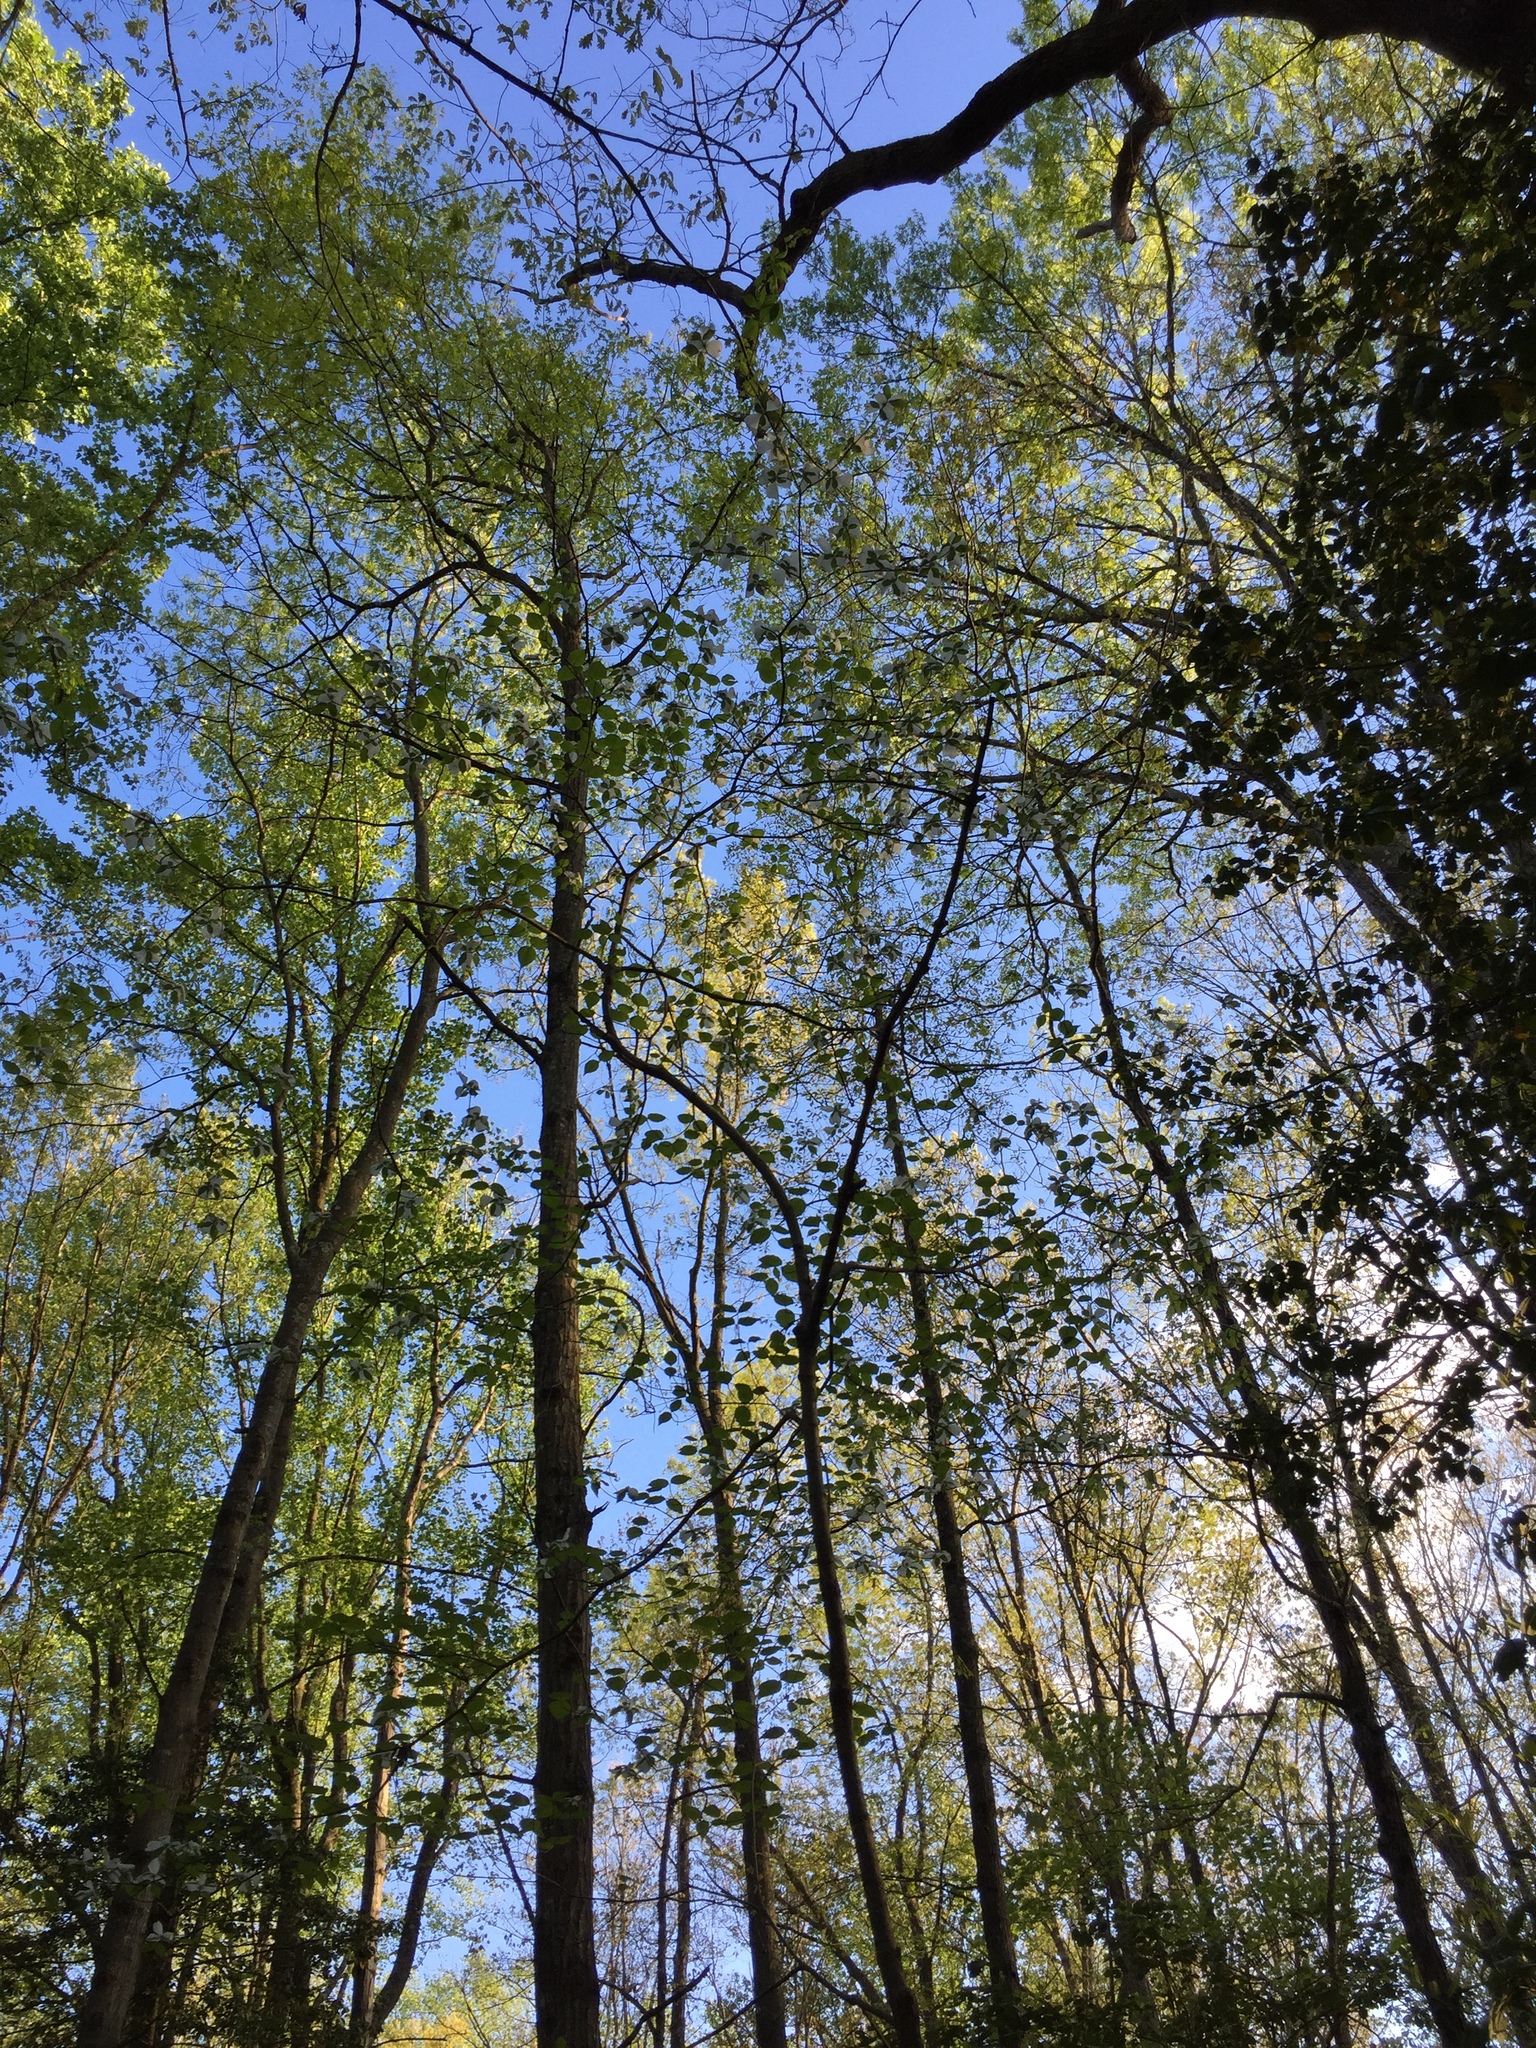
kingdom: Plantae
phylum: Tracheophyta
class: Magnoliopsida
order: Cornales
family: Cornaceae
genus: Cornus
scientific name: Cornus florida
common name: Flowering dogwood
